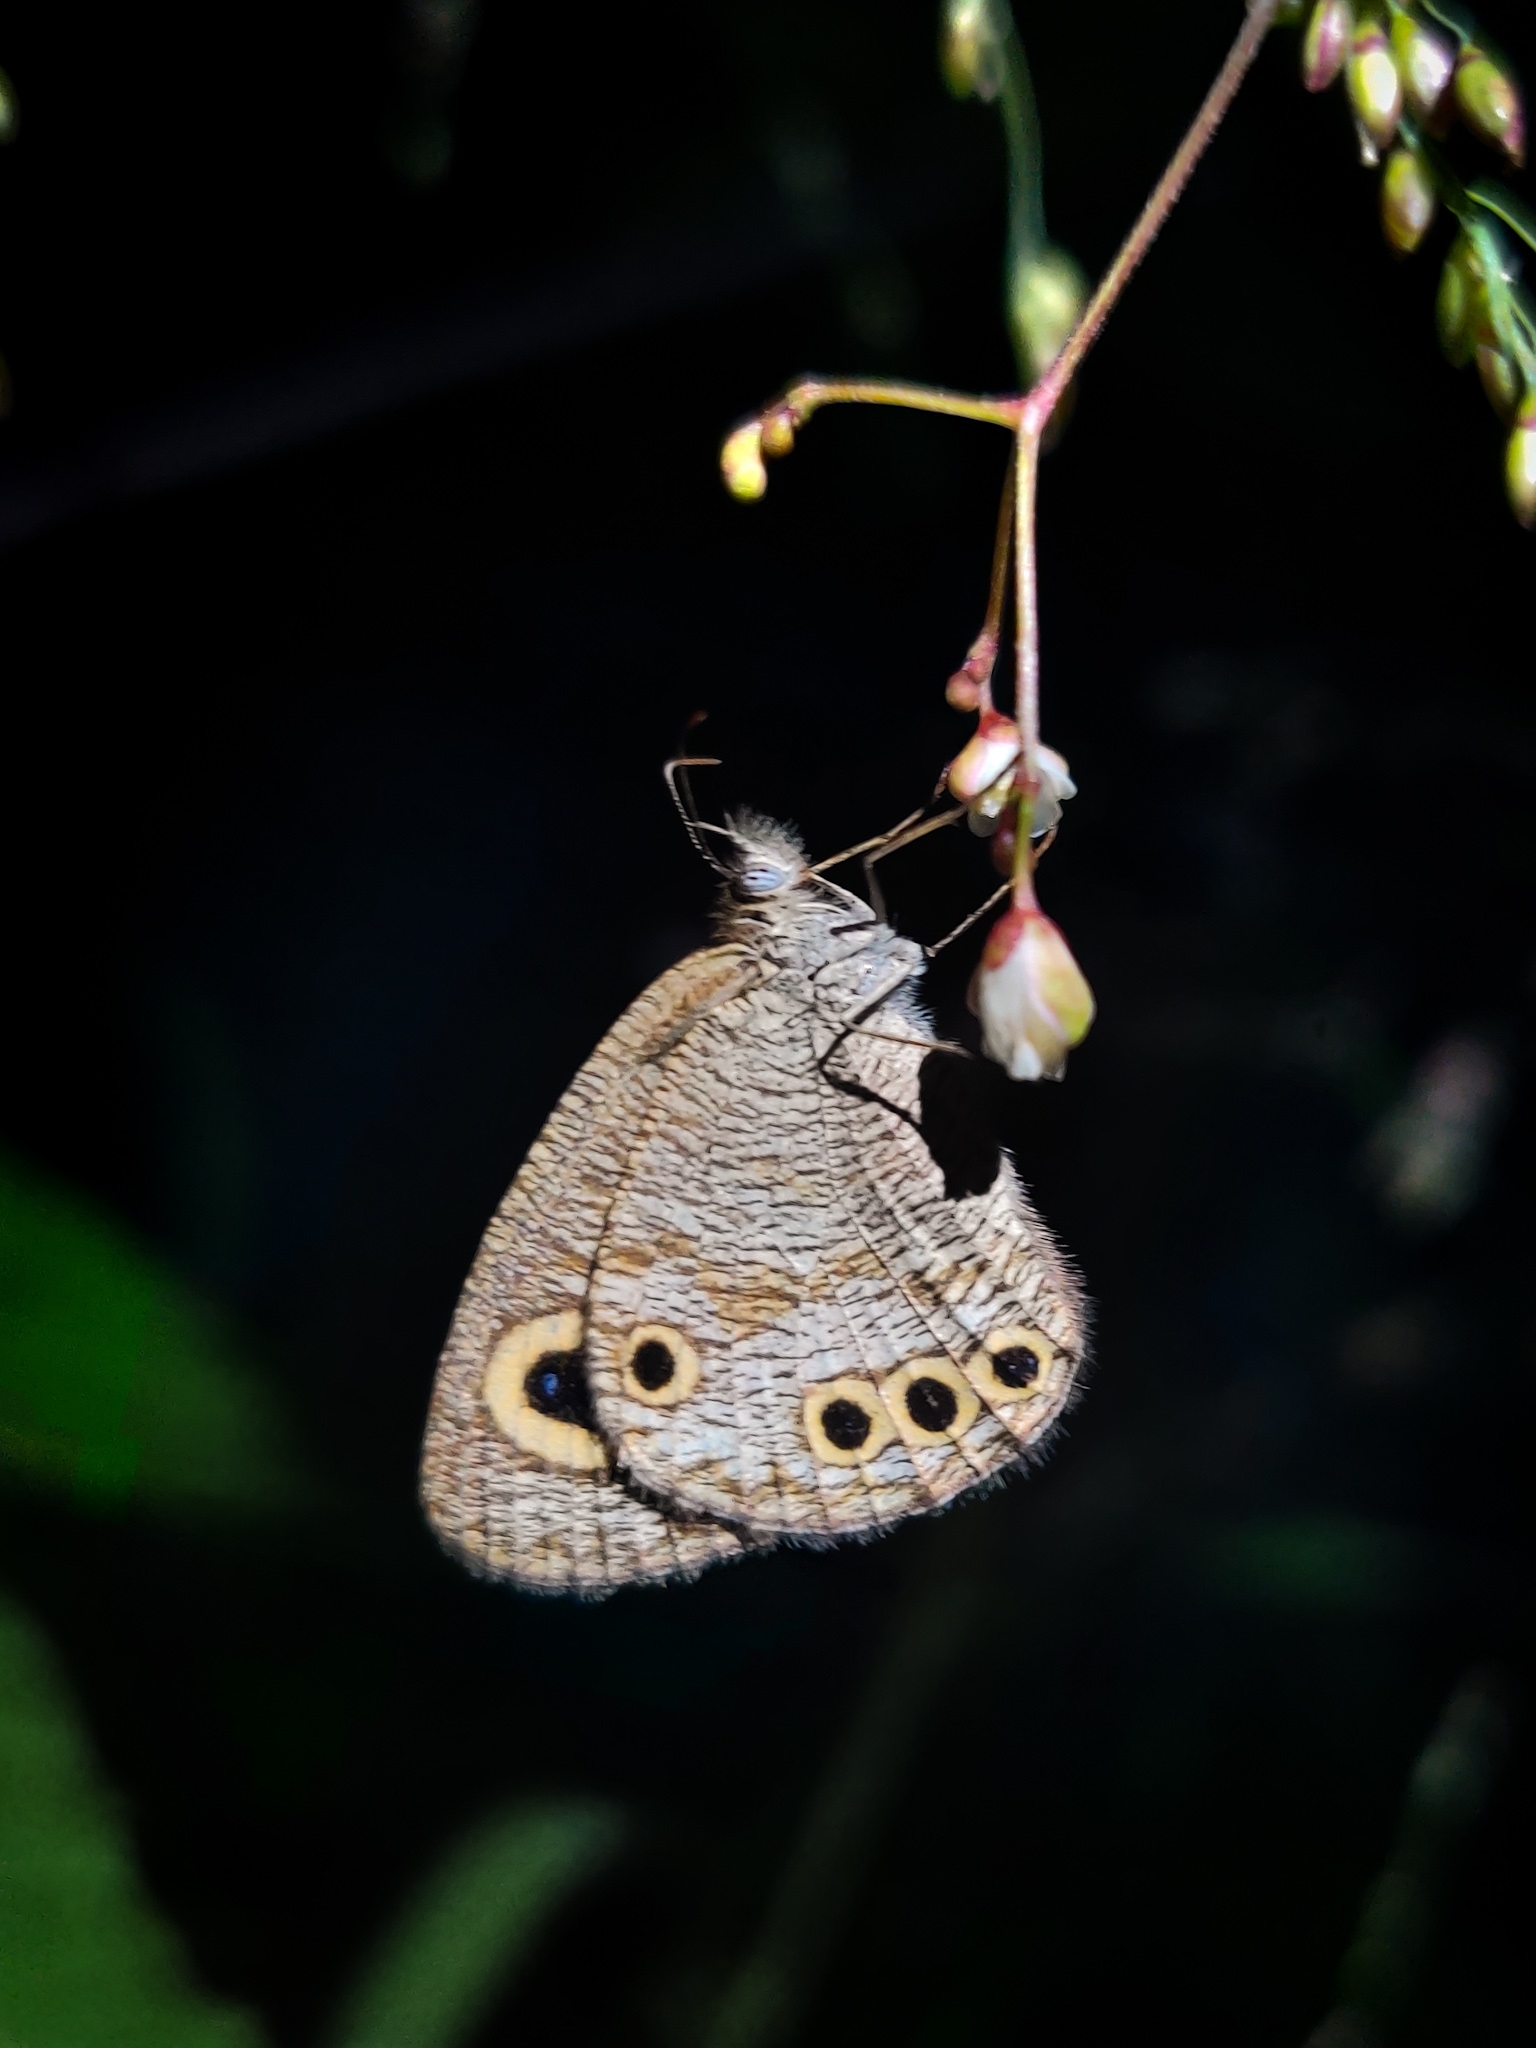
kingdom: Animalia
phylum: Arthropoda
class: Insecta
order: Lepidoptera
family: Nymphalidae
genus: Ypthima
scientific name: Ypthima huebneri
